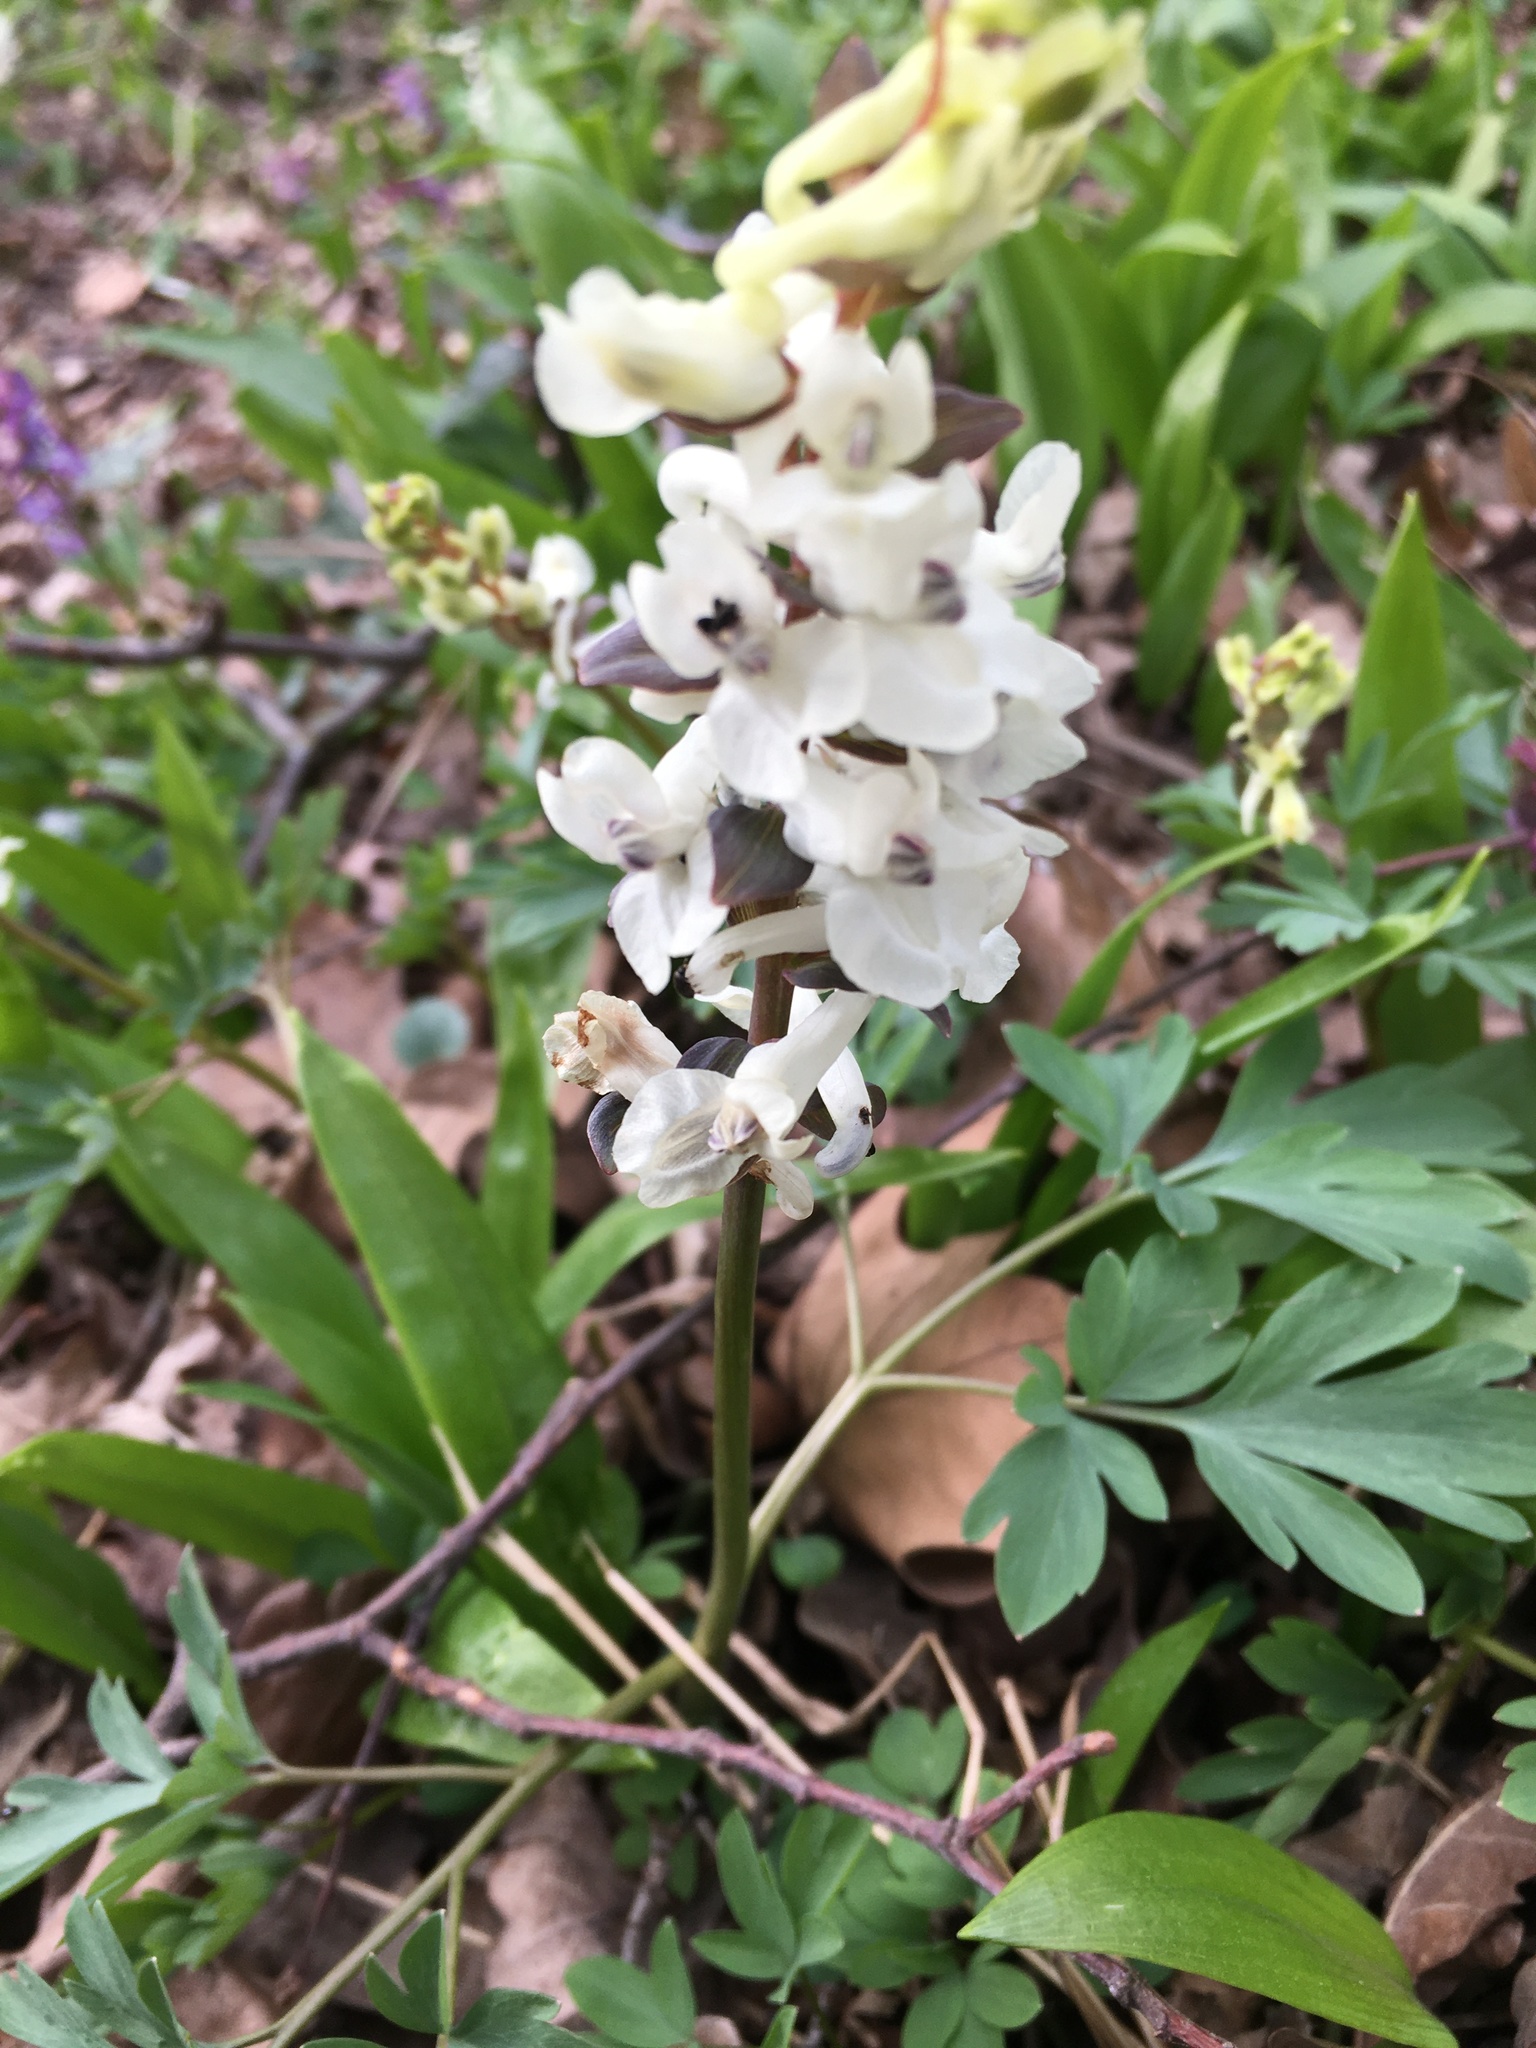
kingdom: Plantae
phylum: Tracheophyta
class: Magnoliopsida
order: Ranunculales
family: Papaveraceae
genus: Corydalis
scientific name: Corydalis cava
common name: Hollowroot
